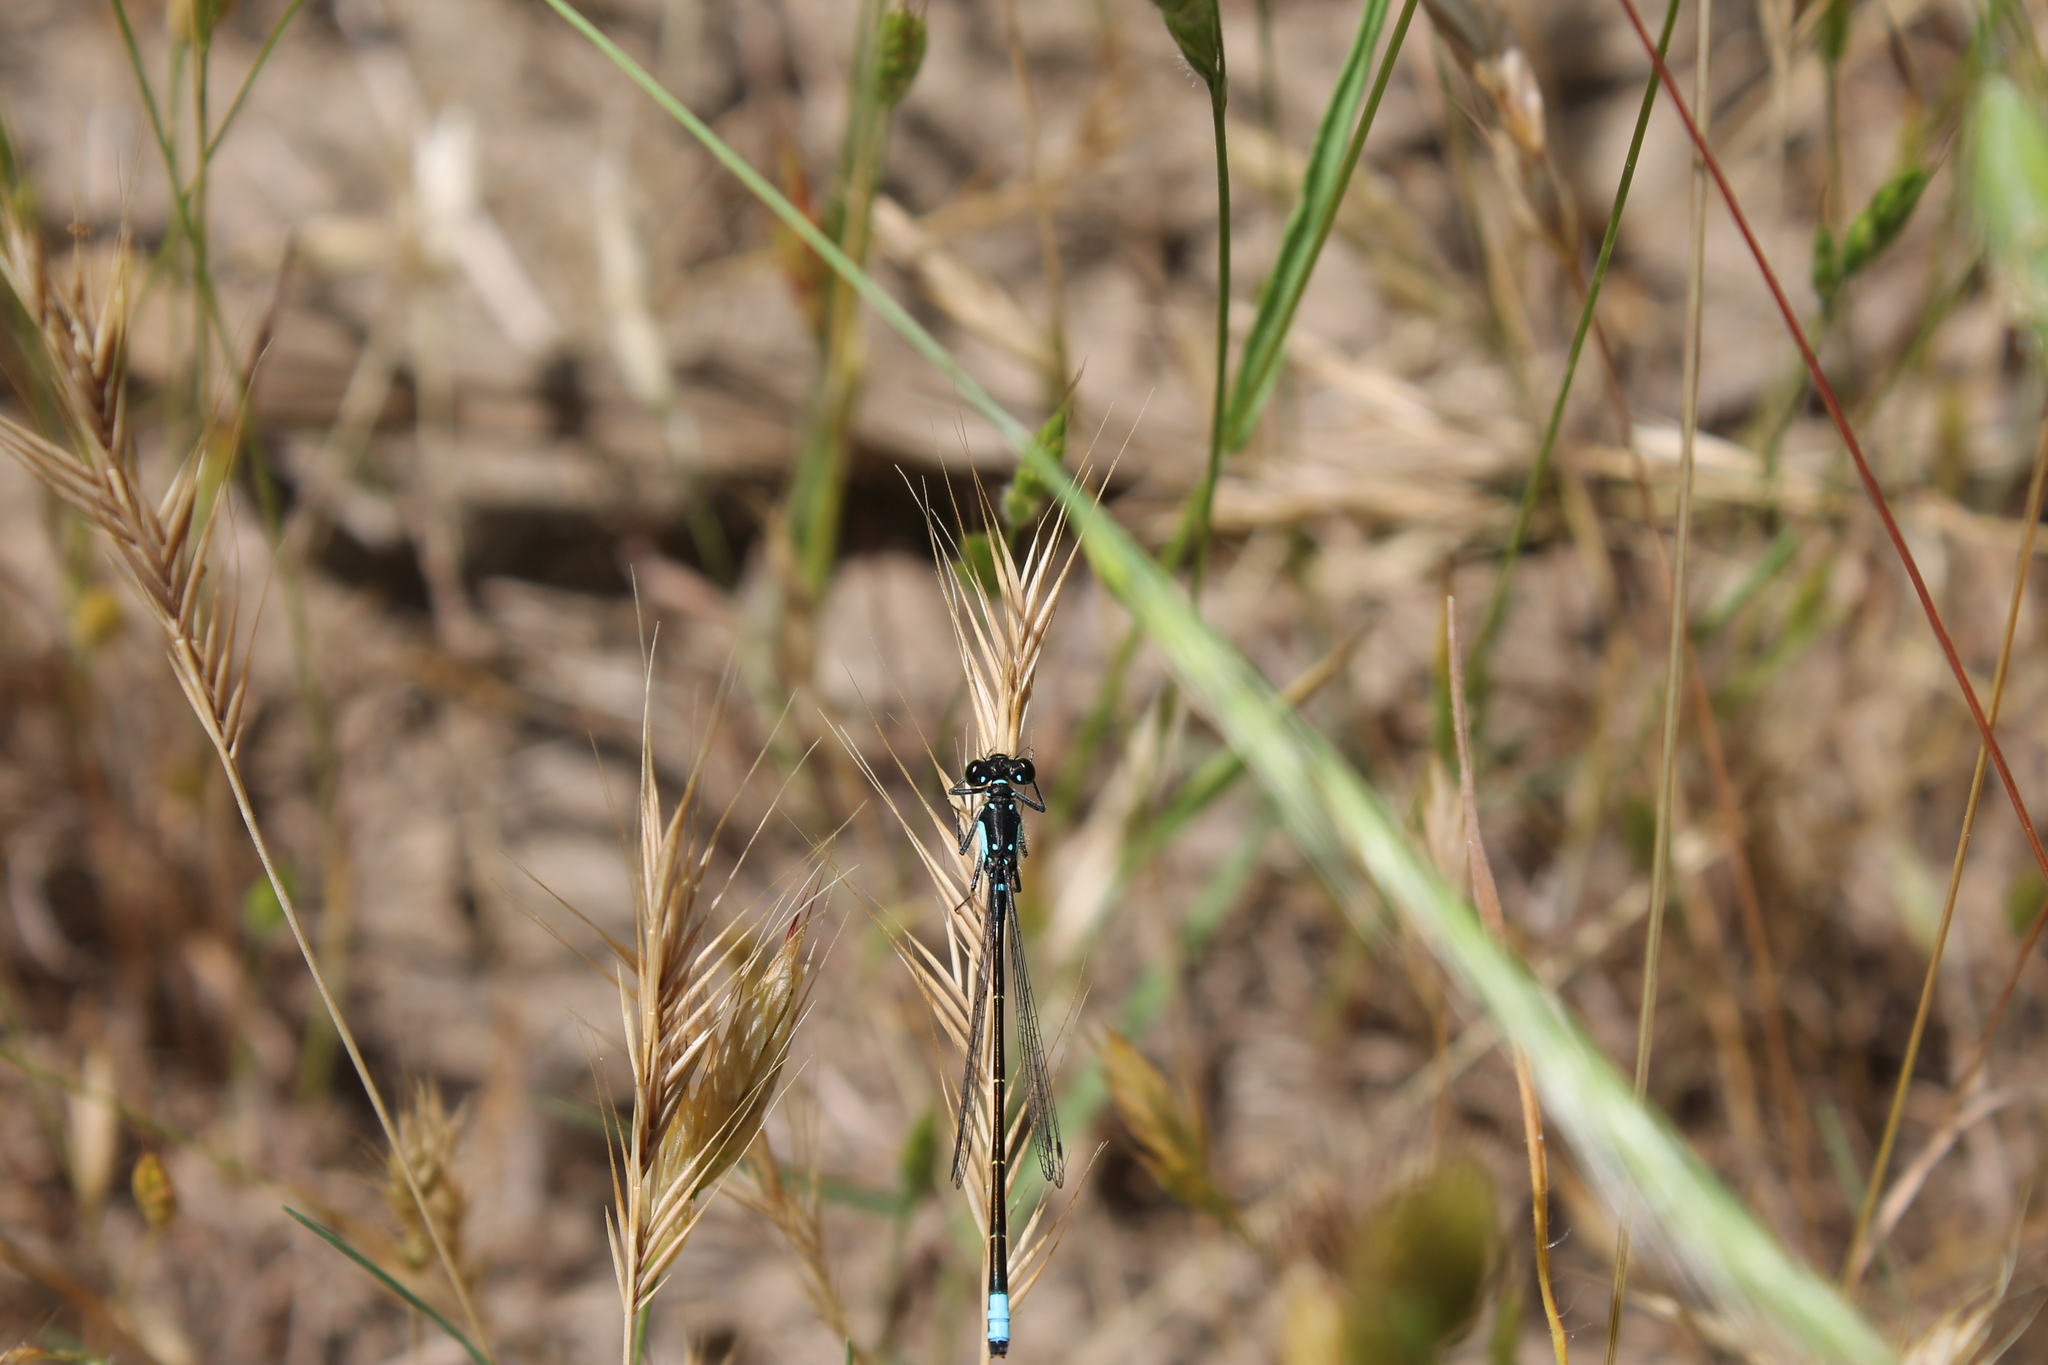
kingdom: Animalia
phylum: Arthropoda
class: Insecta
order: Odonata
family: Coenagrionidae
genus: Ischnura
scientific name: Ischnura cervula
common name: Pacific forktail
